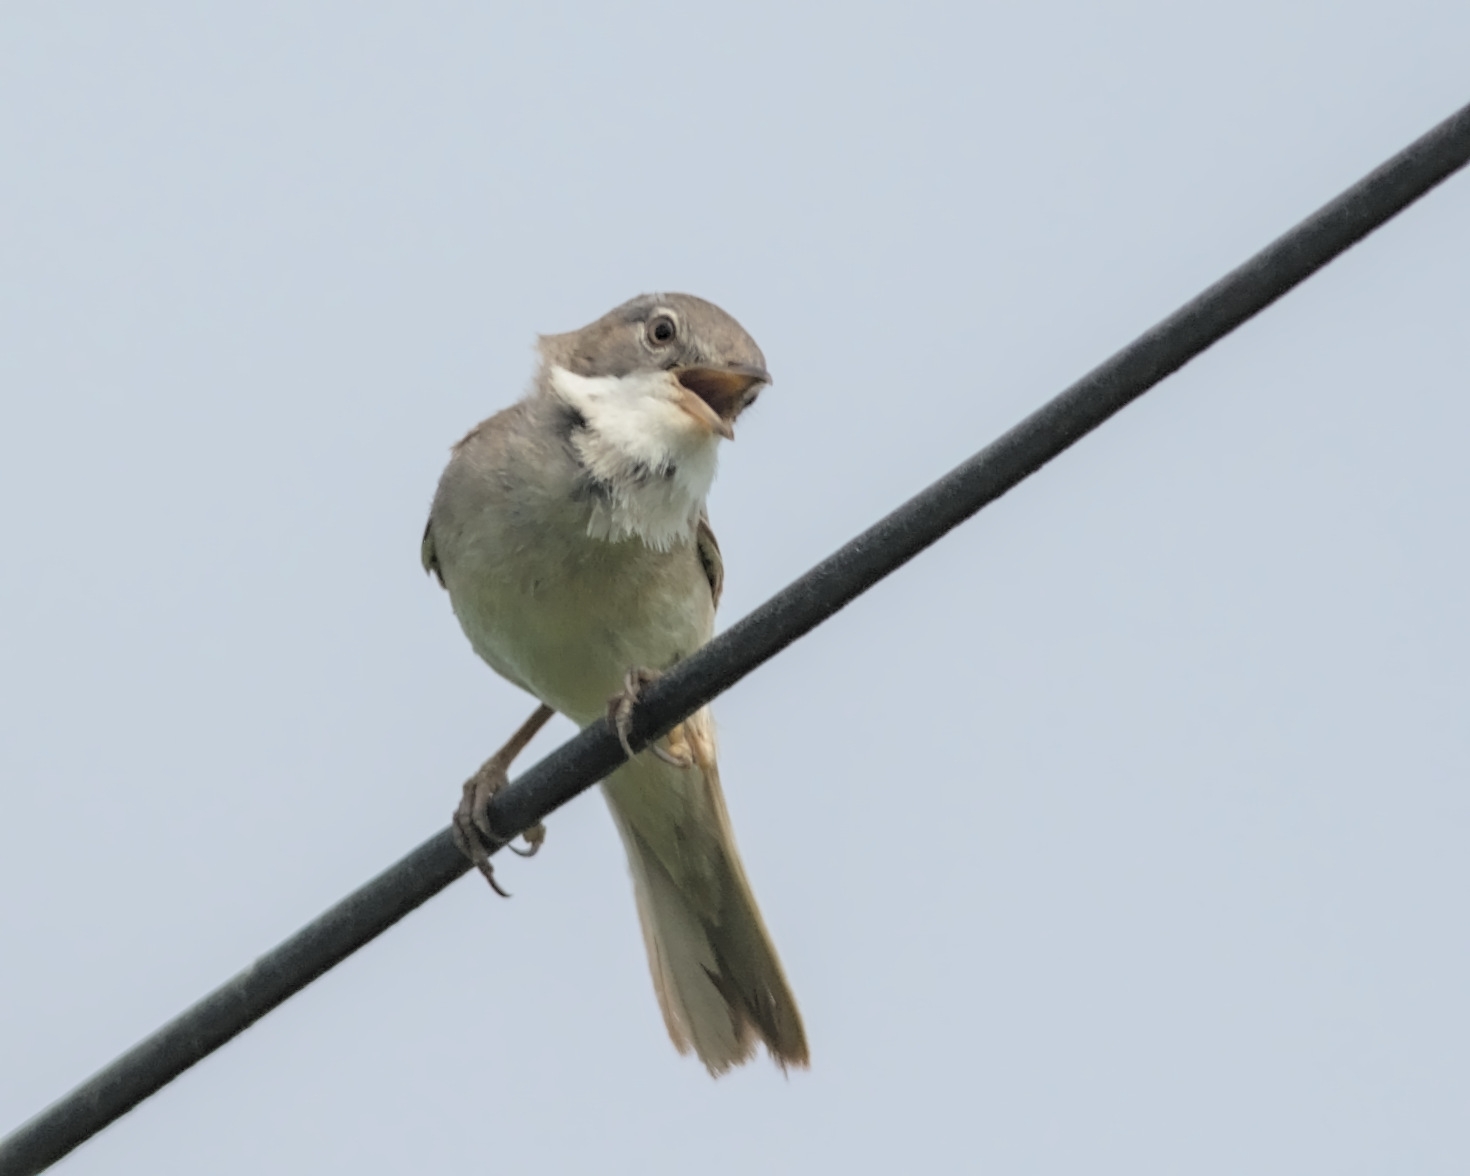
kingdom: Animalia
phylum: Chordata
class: Aves
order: Passeriformes
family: Sylviidae
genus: Sylvia
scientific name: Sylvia communis
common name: Common whitethroat
